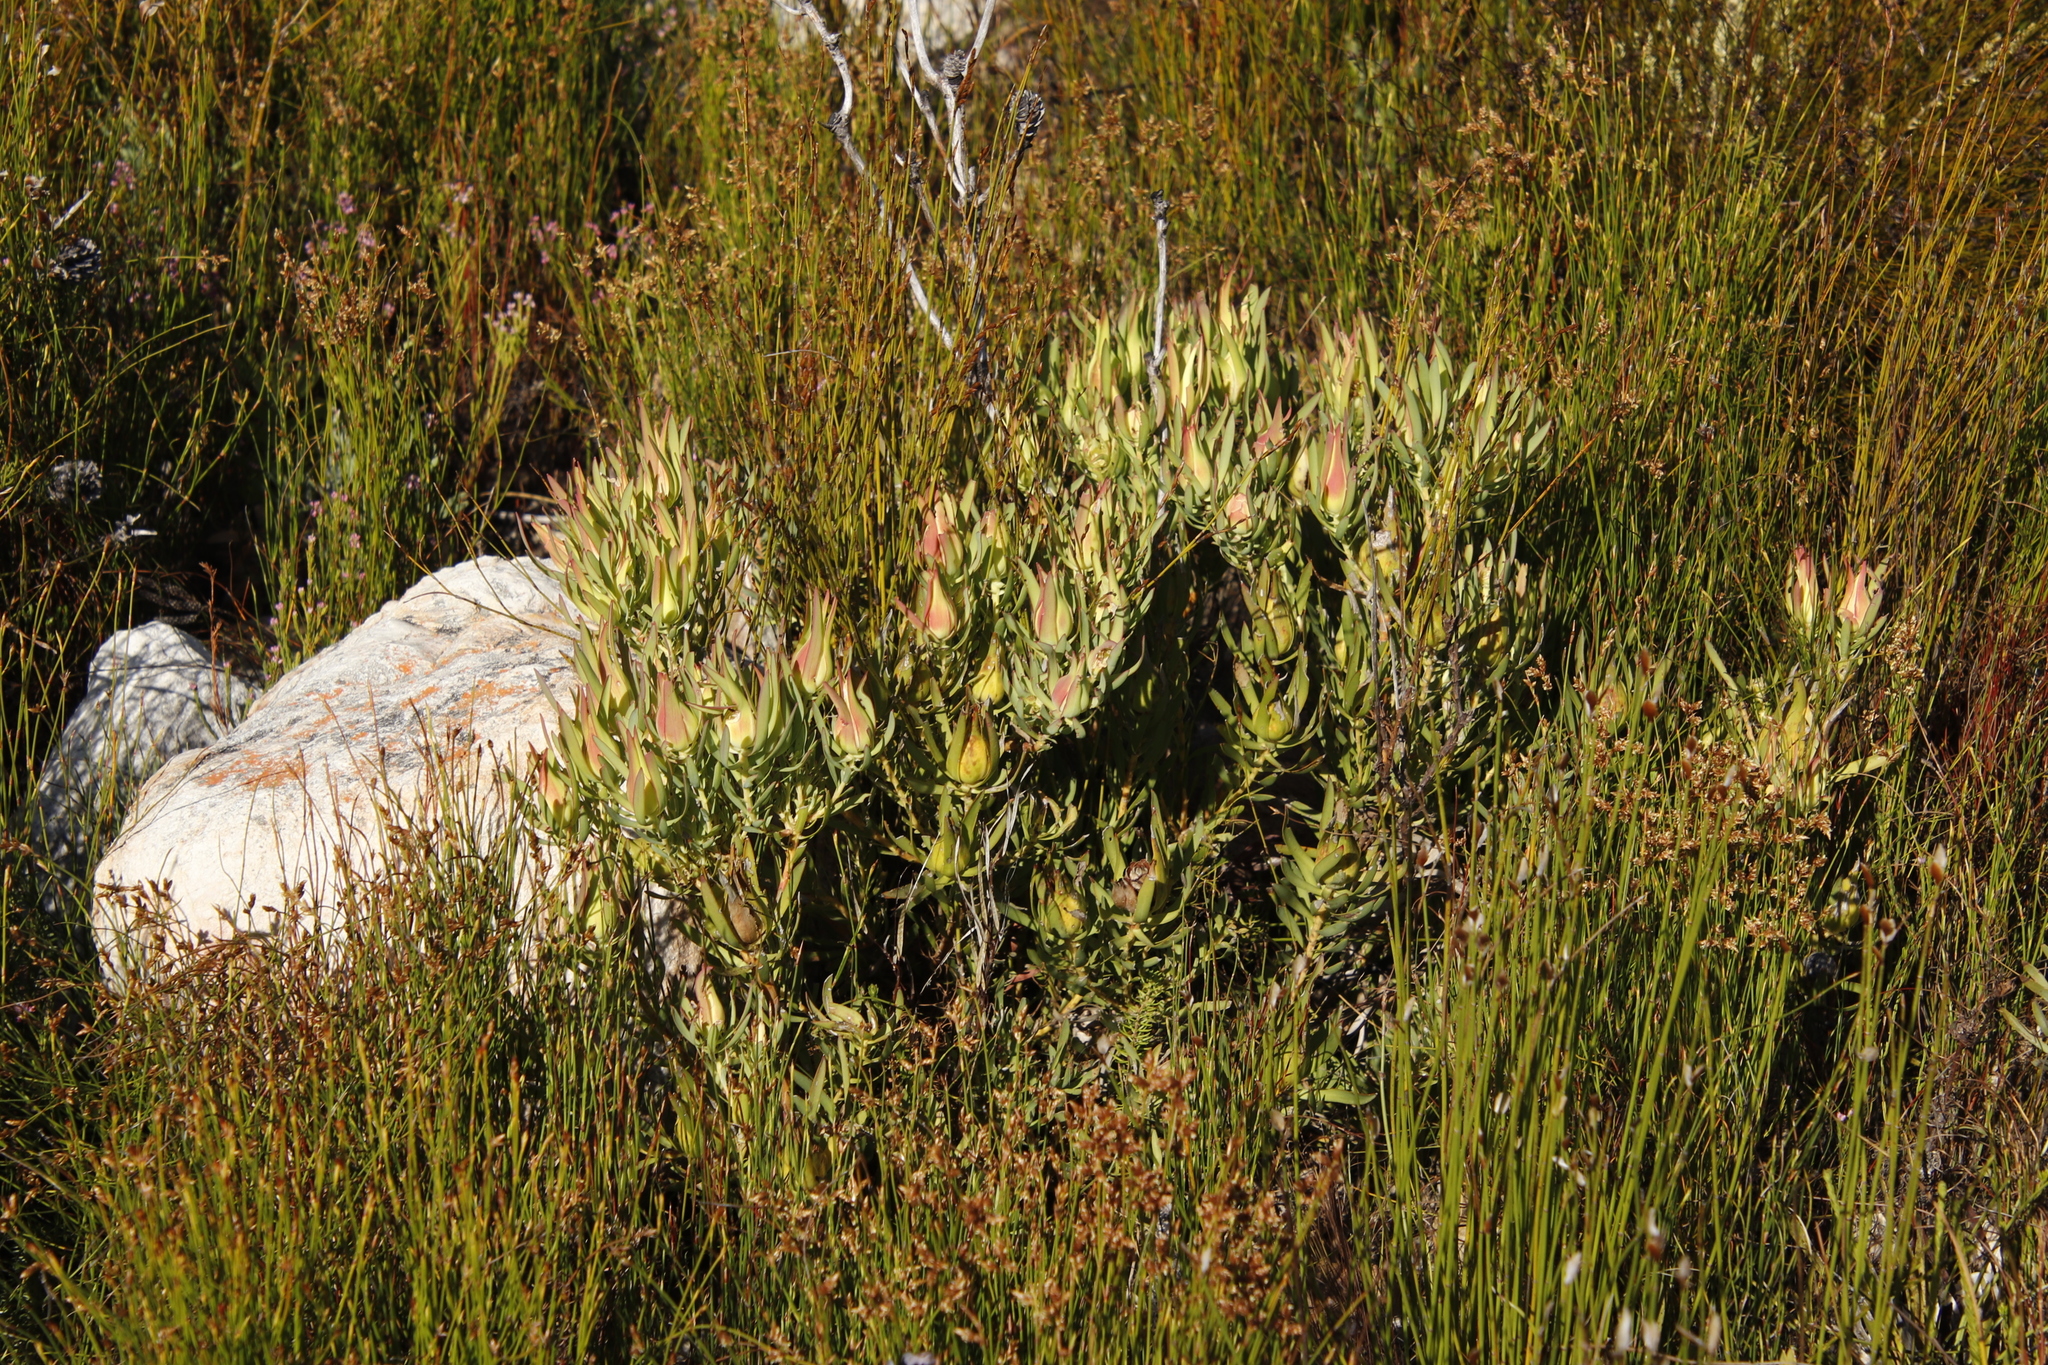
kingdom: Plantae
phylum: Tracheophyta
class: Magnoliopsida
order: Proteales
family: Proteaceae
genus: Leucadendron
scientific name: Leucadendron salignum
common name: Common sunshine conebush
